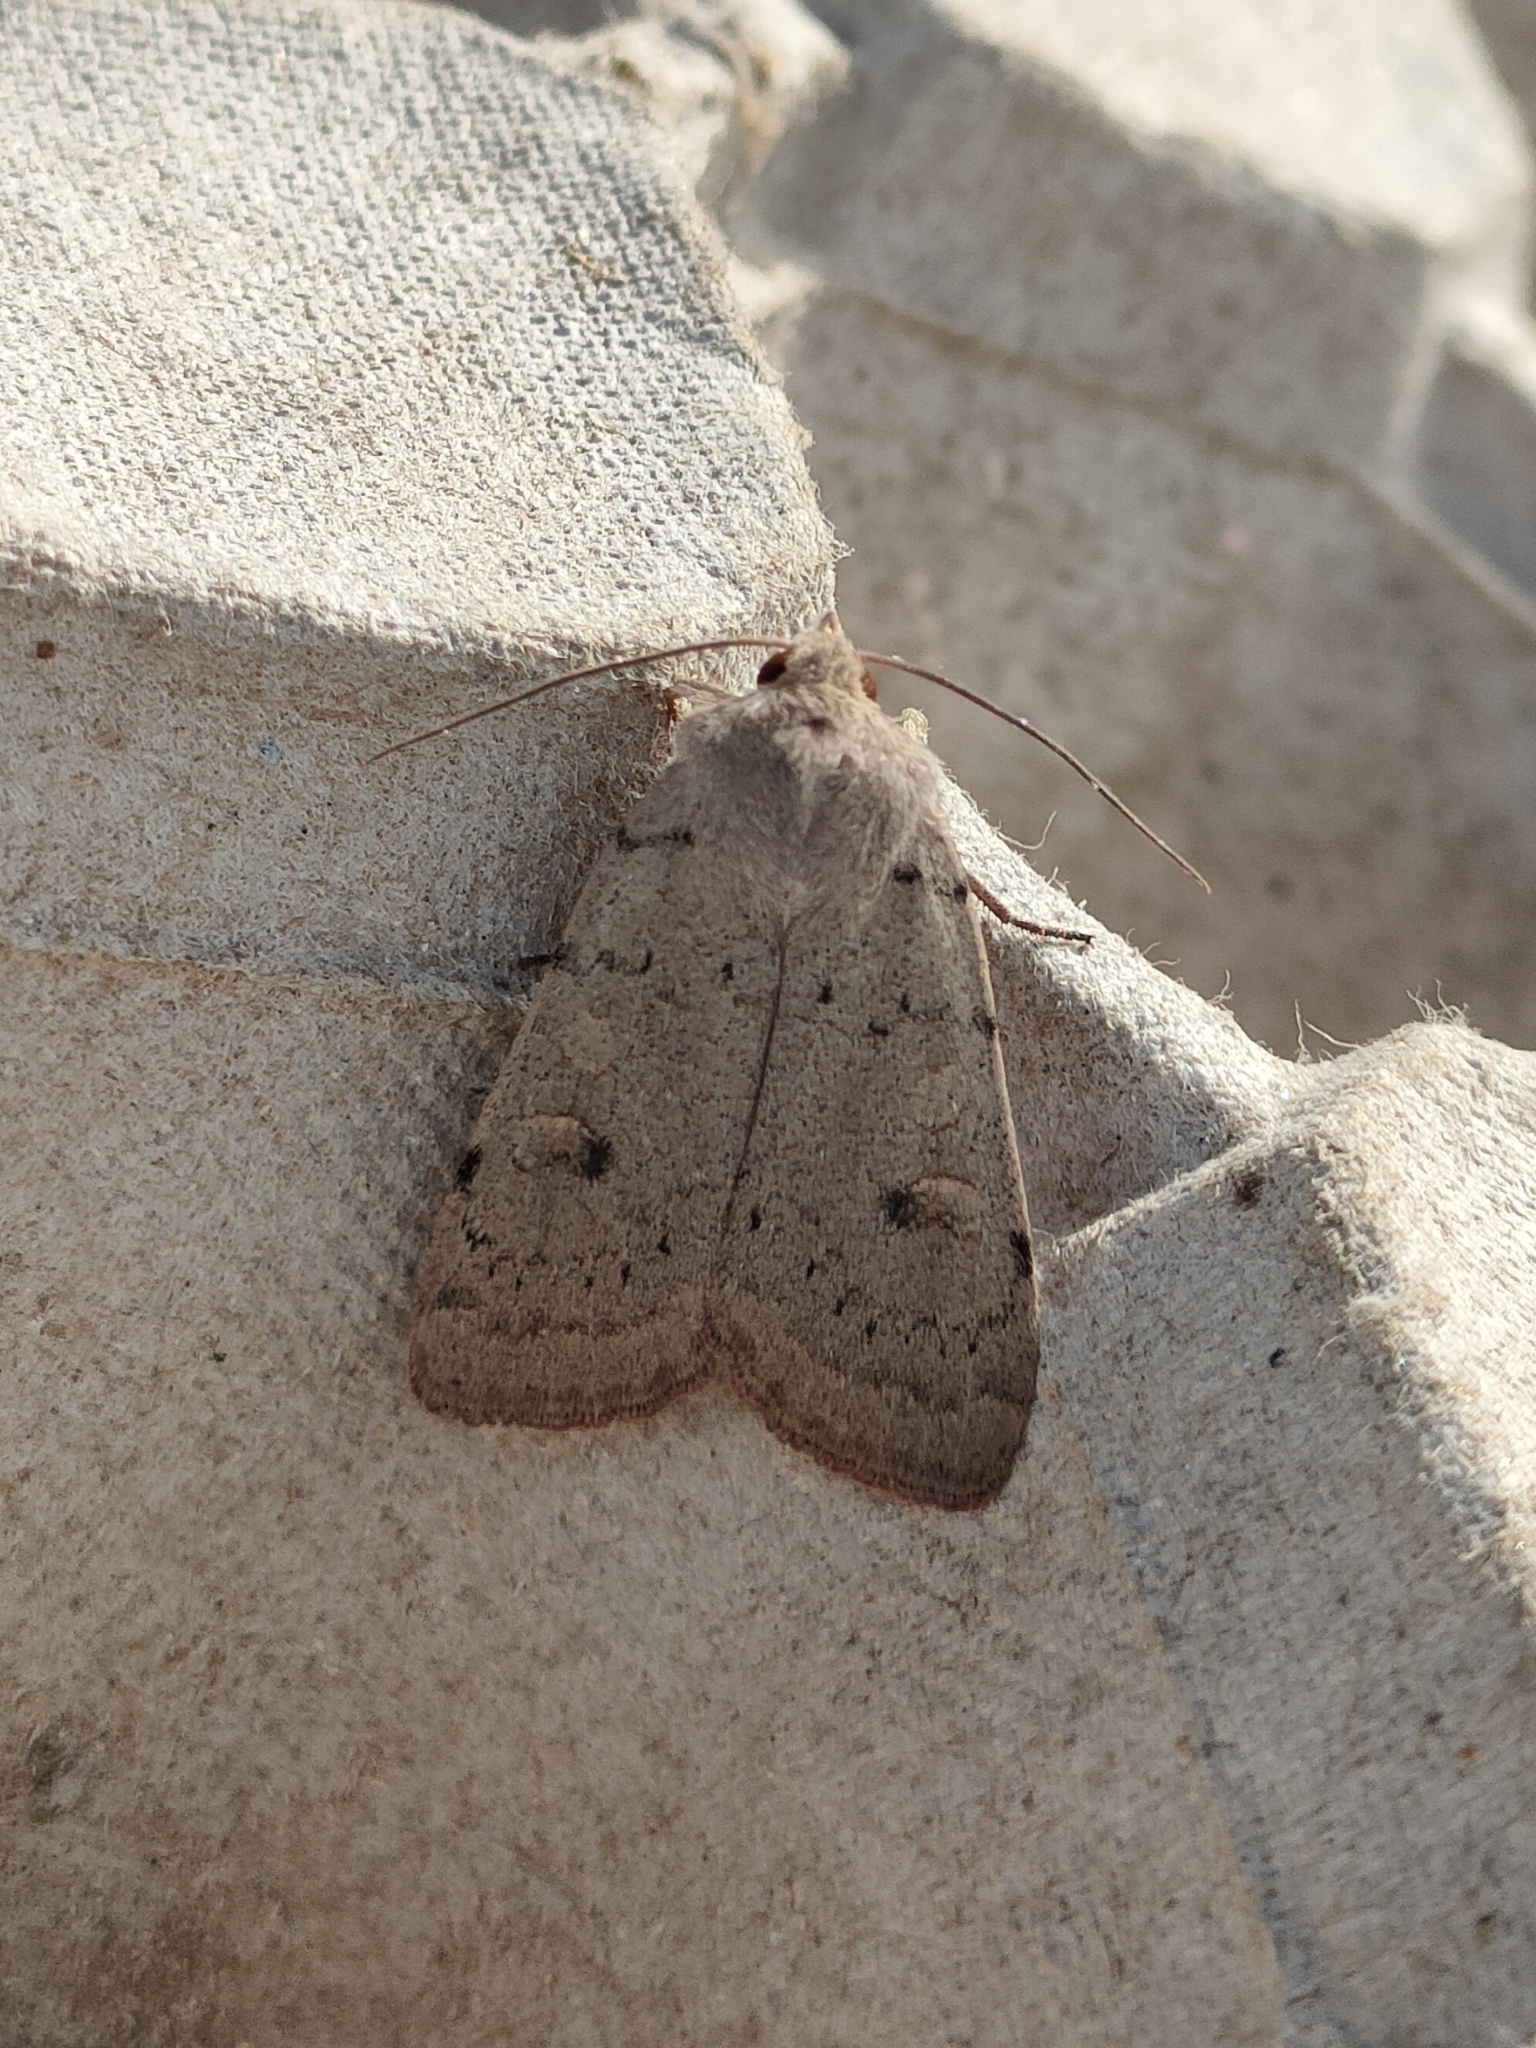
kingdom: Animalia
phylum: Arthropoda
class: Insecta
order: Lepidoptera
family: Noctuidae
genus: Xestia
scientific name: Xestia castanea
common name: Neglected rustic
